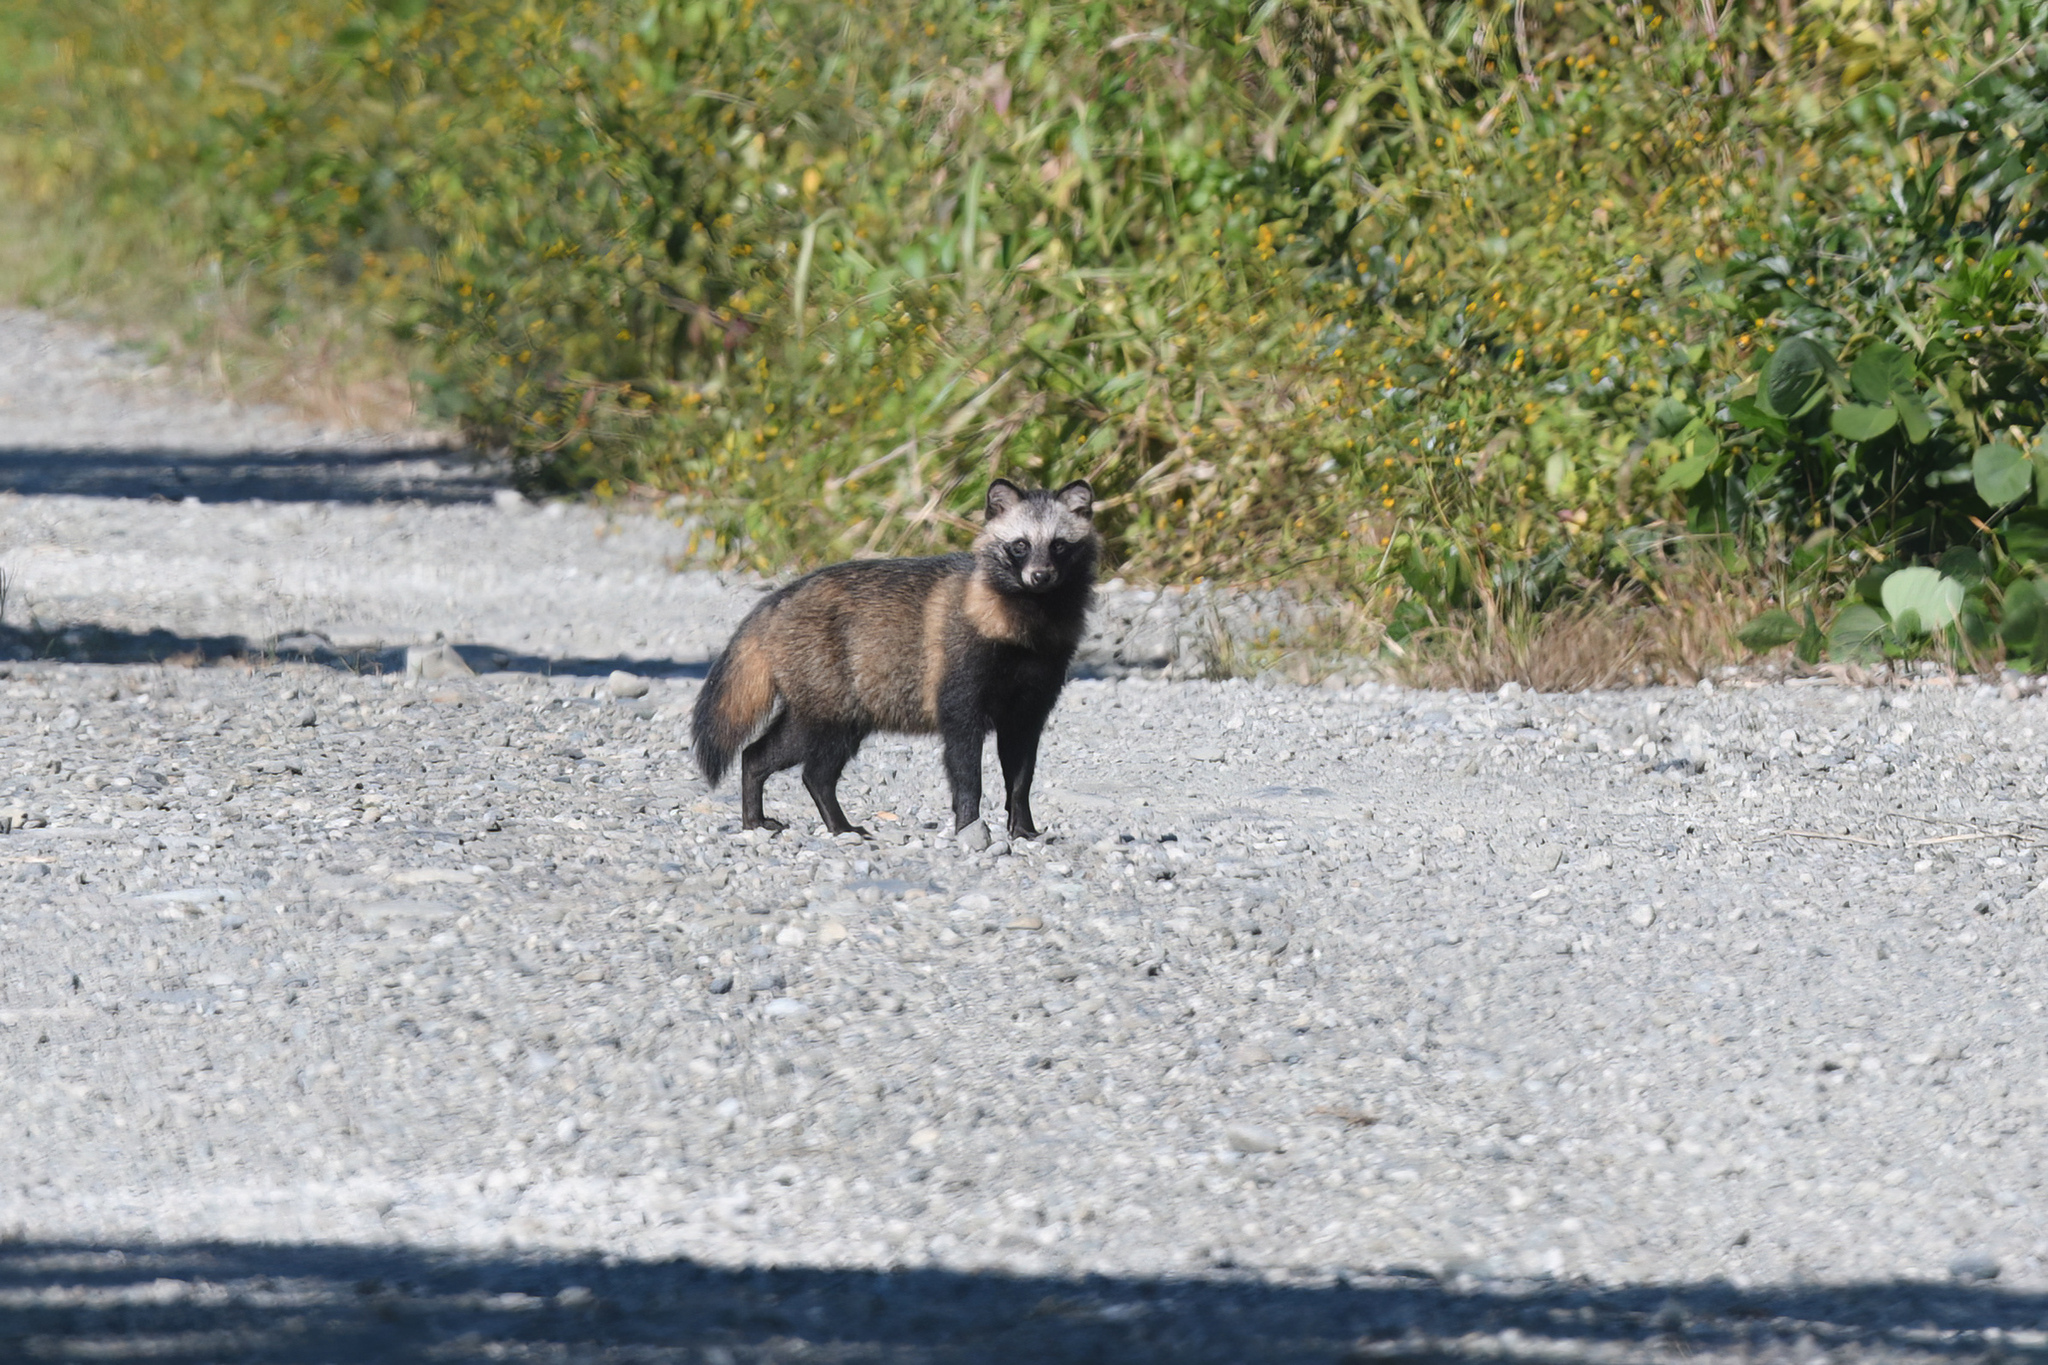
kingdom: Animalia
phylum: Chordata
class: Mammalia
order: Carnivora
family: Canidae
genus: Nyctereutes
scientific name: Nyctereutes
